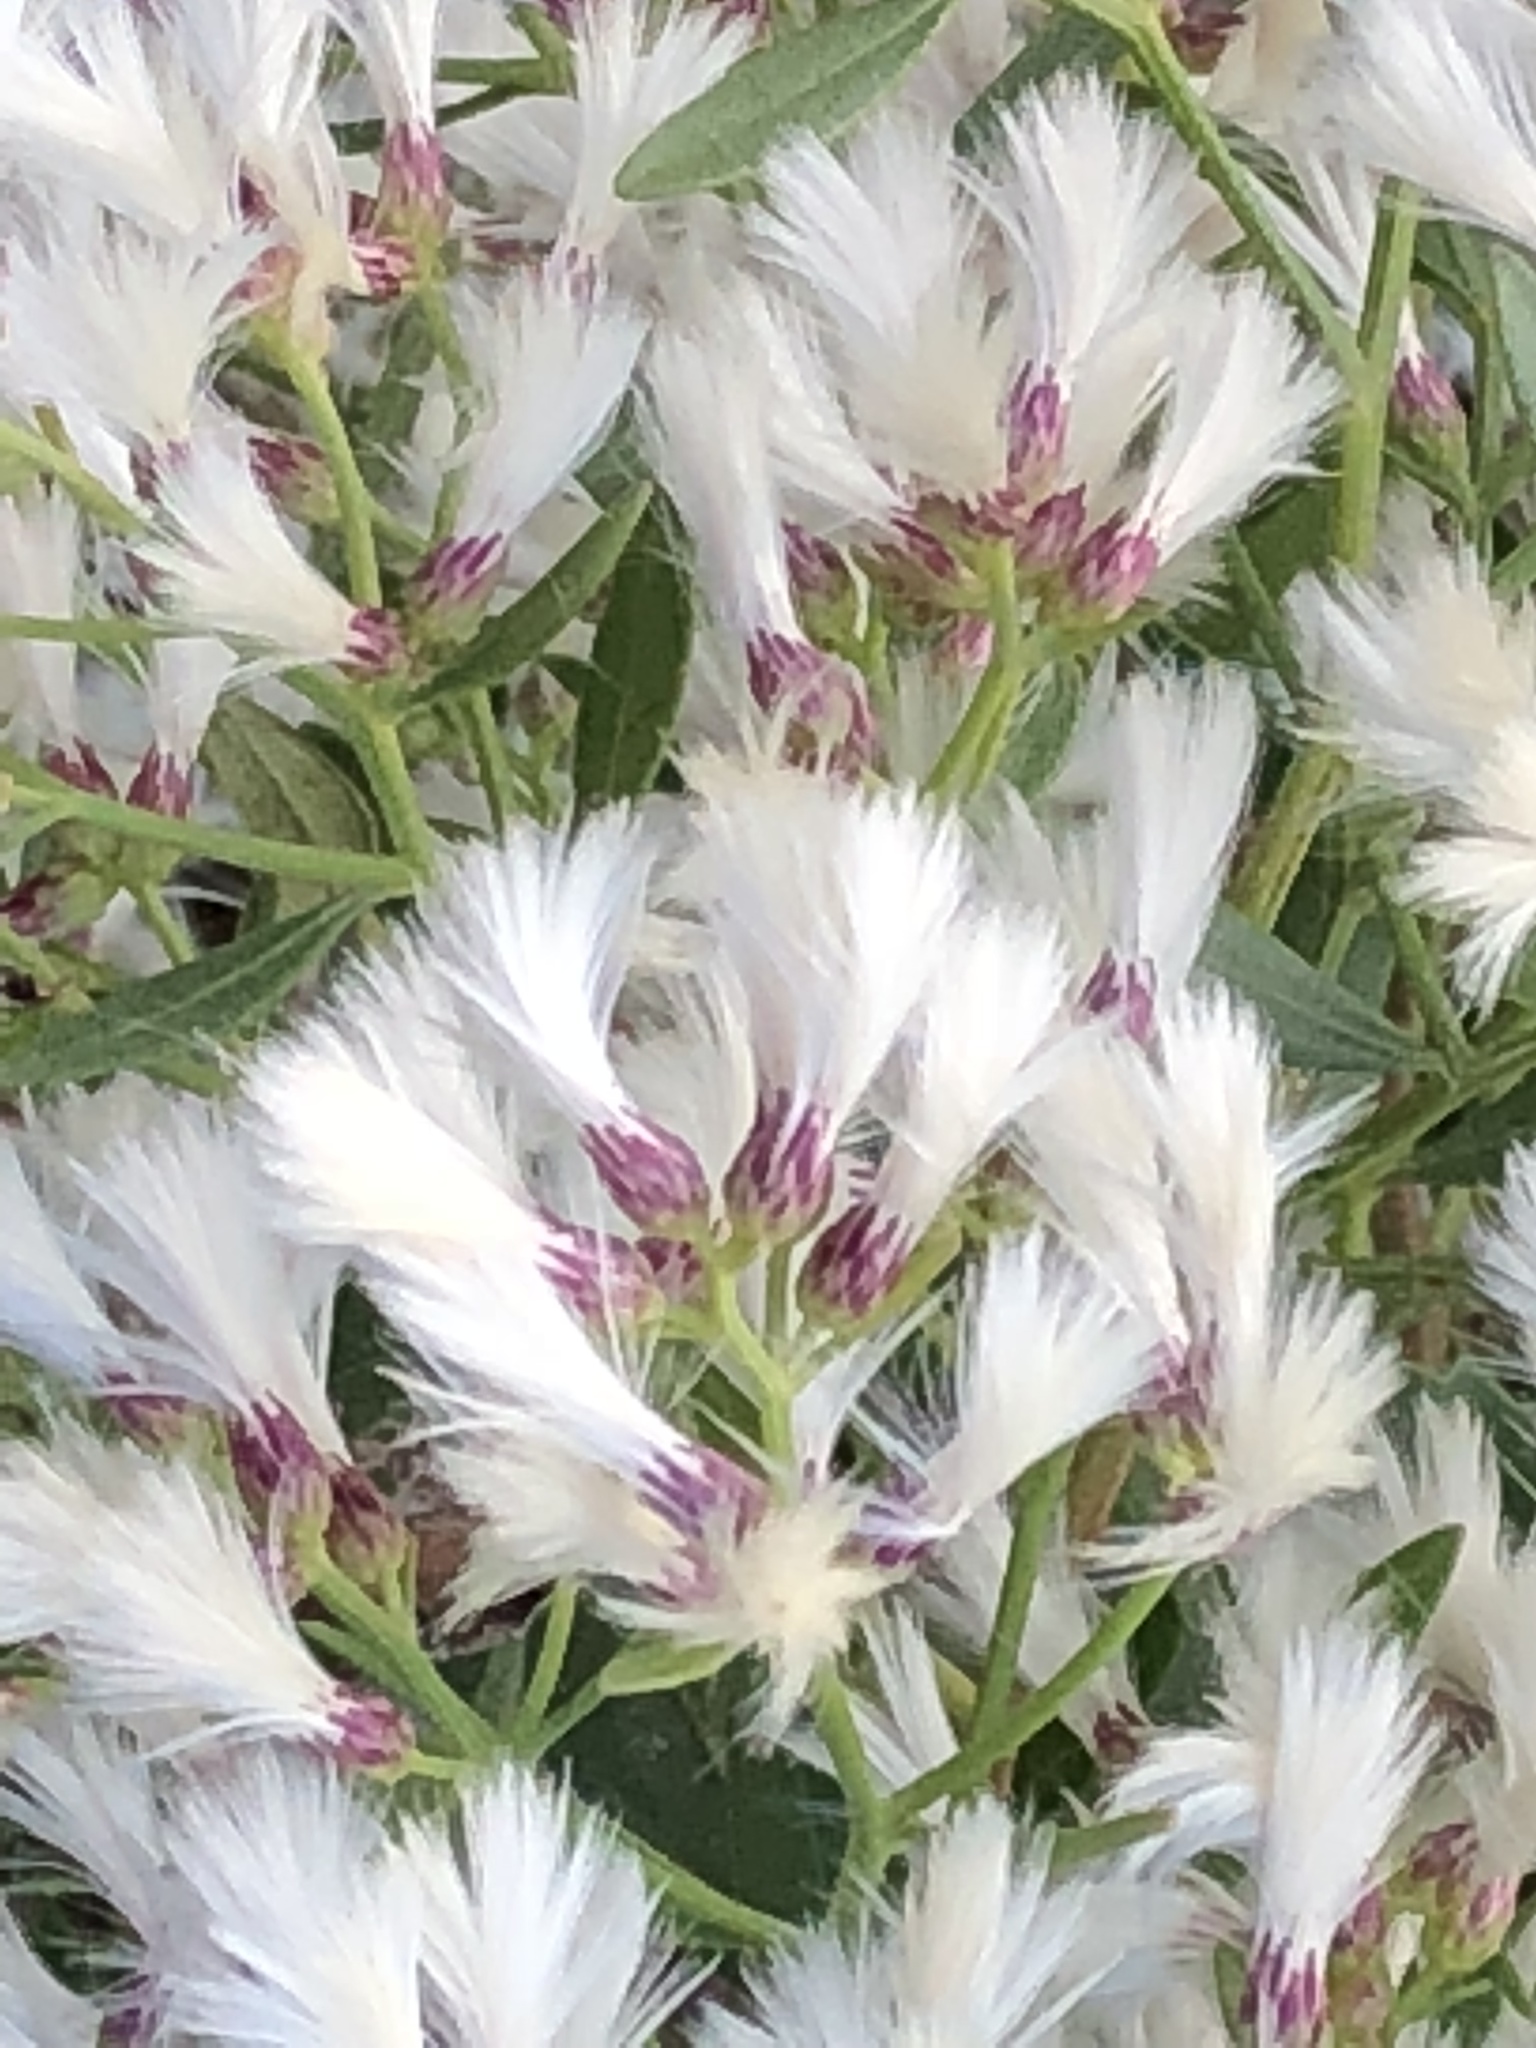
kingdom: Plantae
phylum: Tracheophyta
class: Magnoliopsida
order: Asterales
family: Asteraceae
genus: Baccharis
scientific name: Baccharis halimifolia
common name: Eastern baccharis
